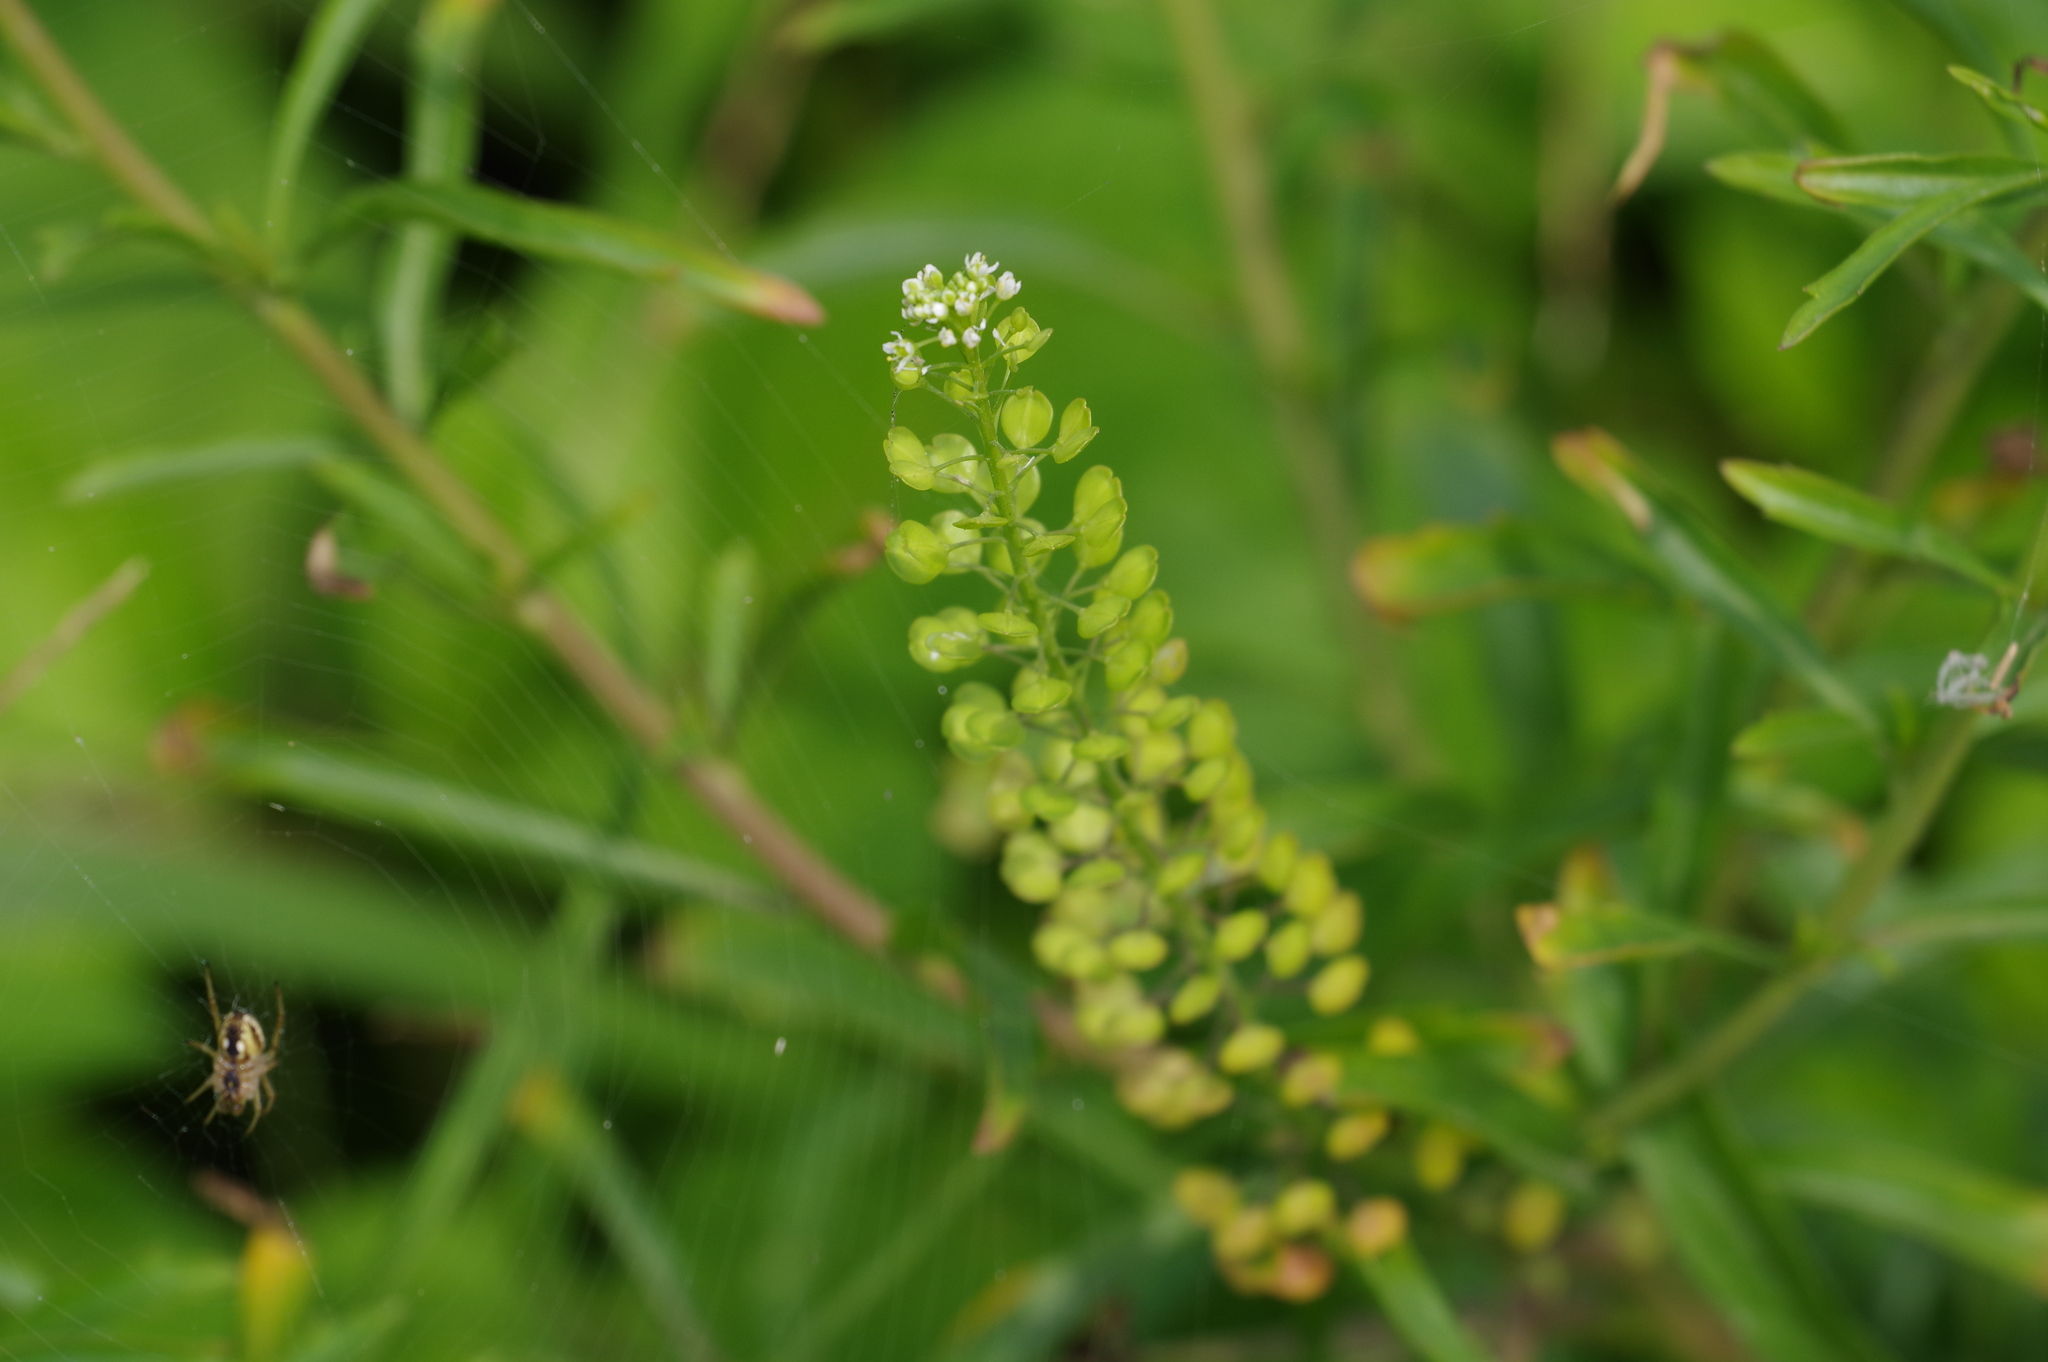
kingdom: Plantae
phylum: Tracheophyta
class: Magnoliopsida
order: Brassicales
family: Brassicaceae
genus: Lepidium
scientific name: Lepidium virginicum
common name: Least pepperwort
